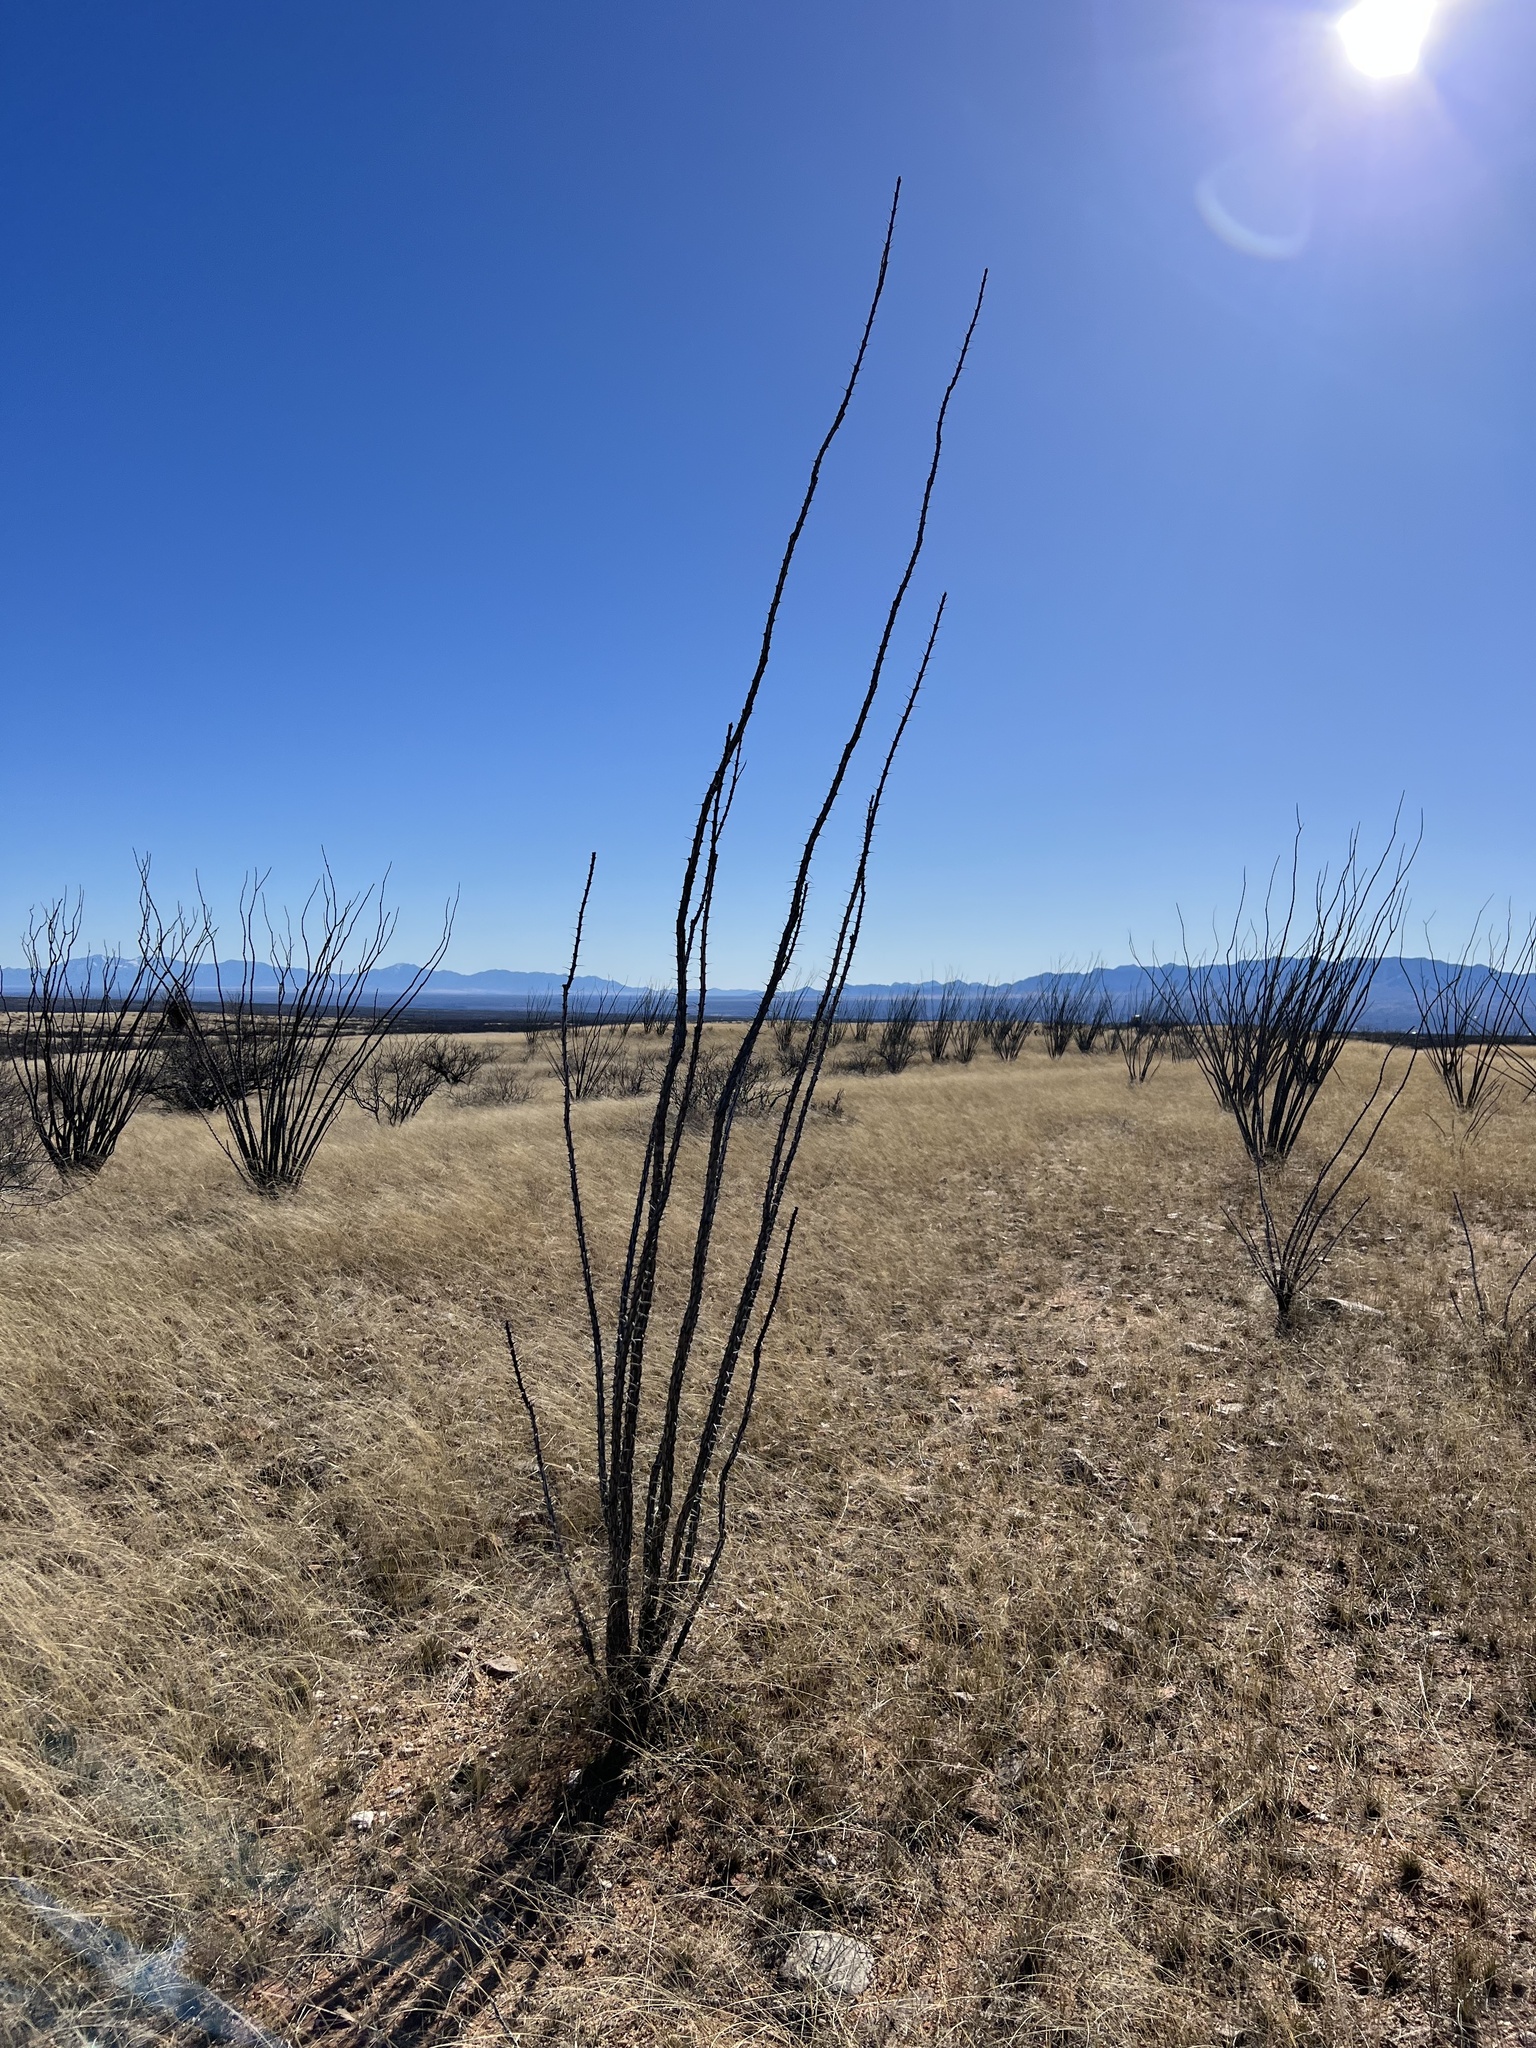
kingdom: Plantae
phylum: Tracheophyta
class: Magnoliopsida
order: Ericales
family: Fouquieriaceae
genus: Fouquieria
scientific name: Fouquieria splendens
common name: Vine-cactus
